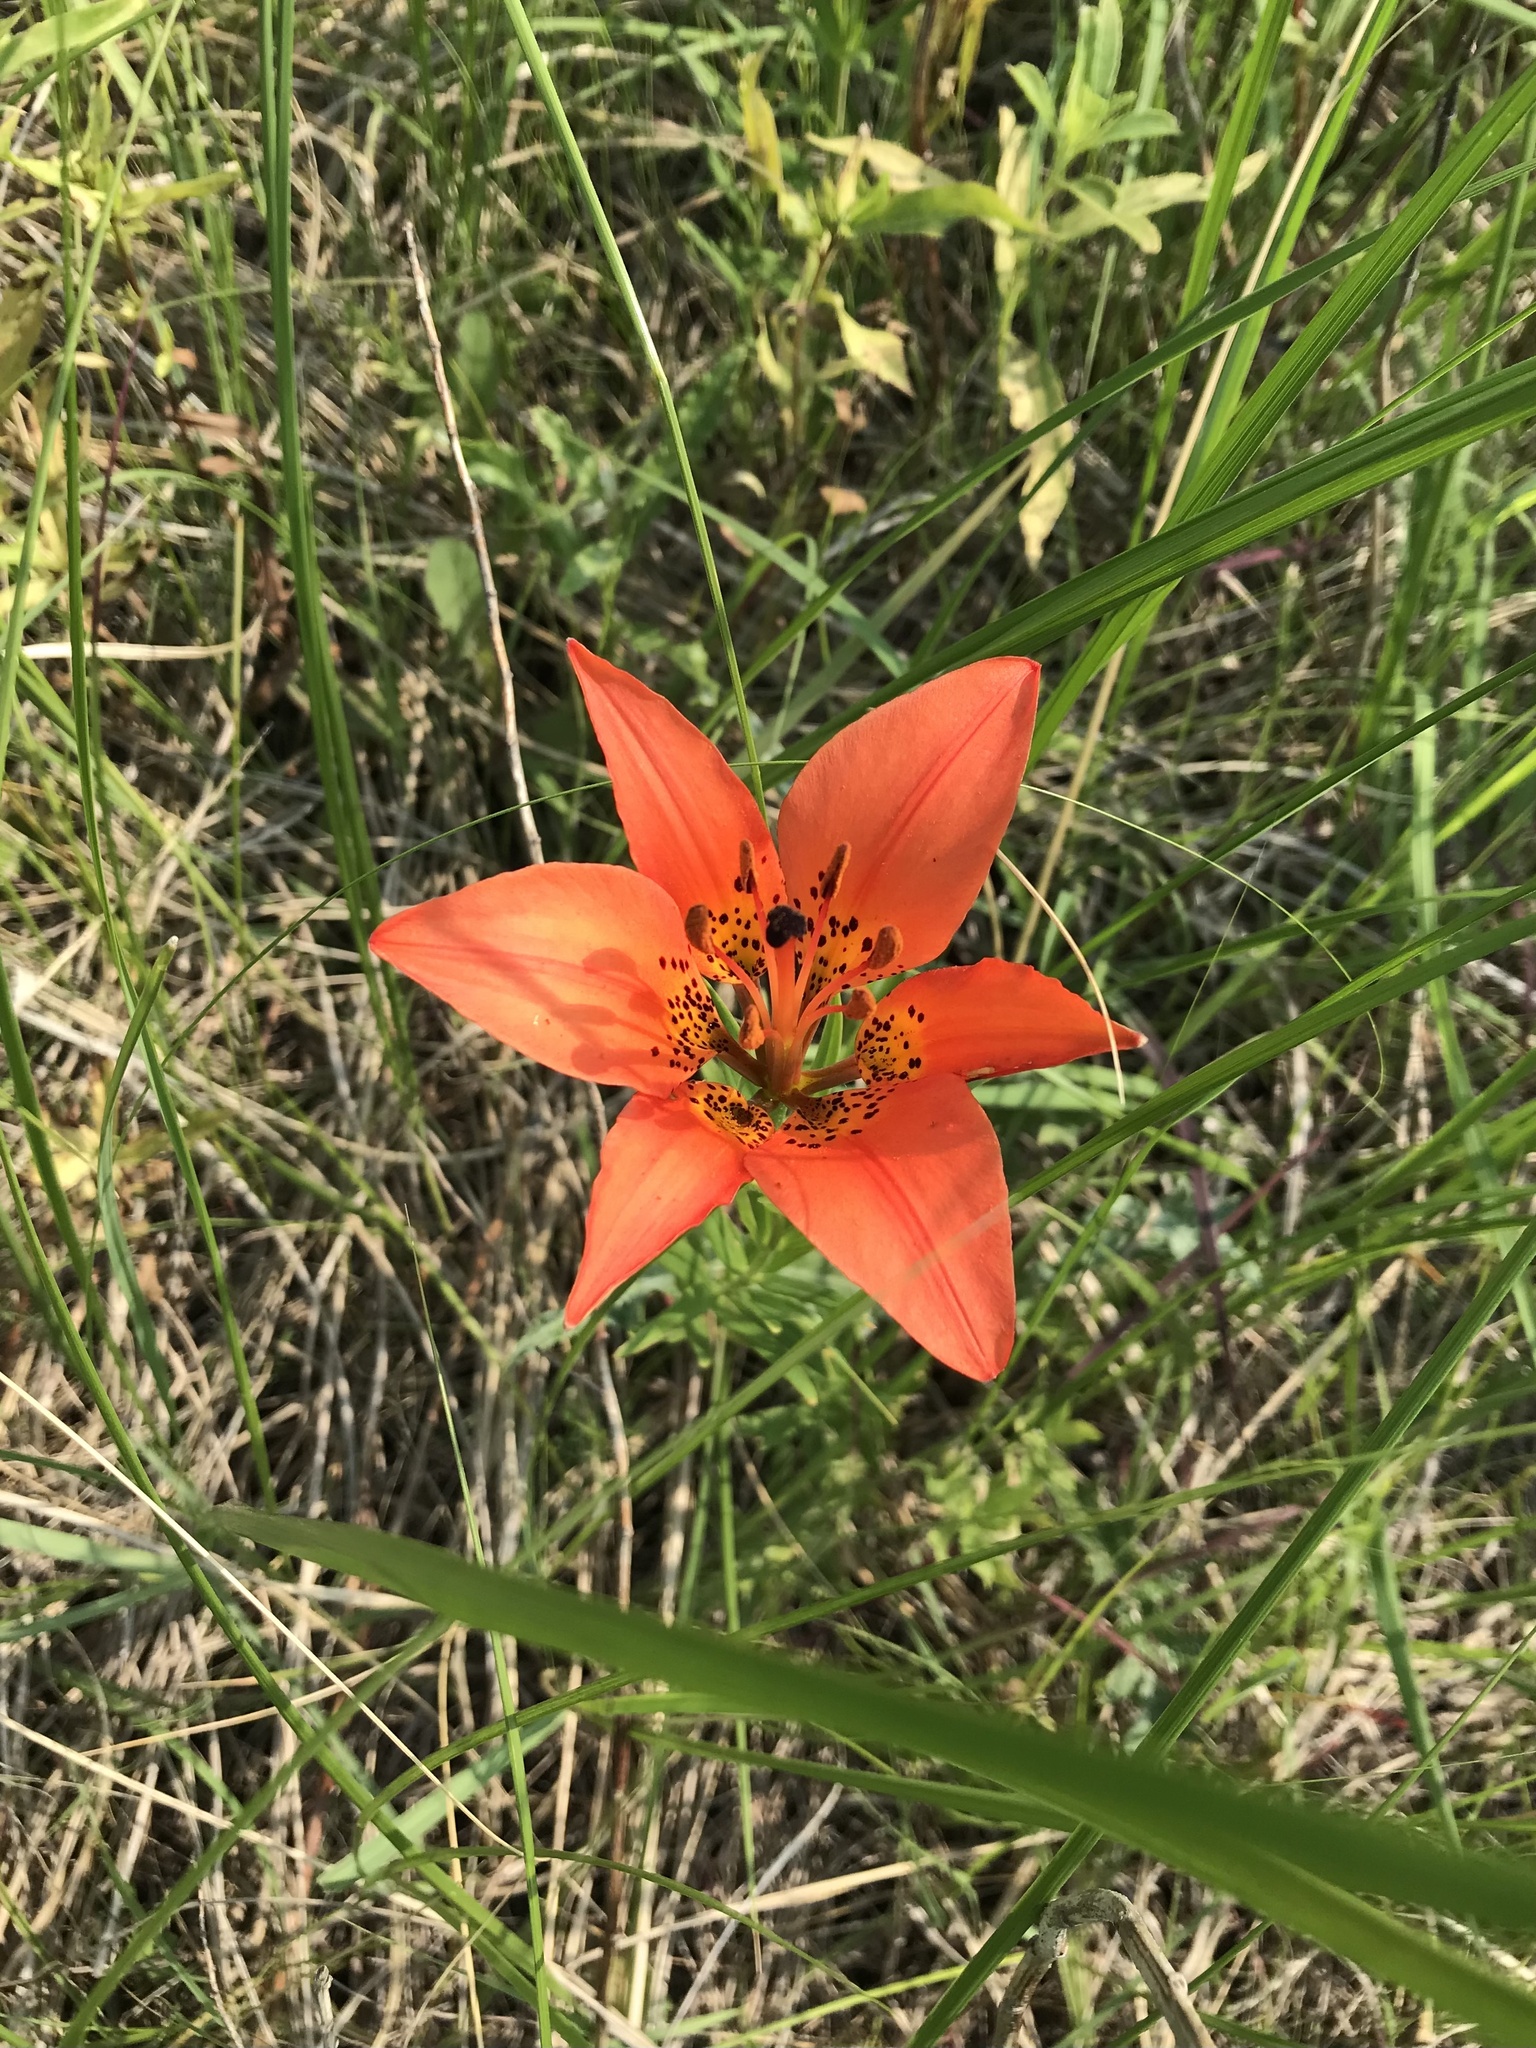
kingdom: Plantae
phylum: Tracheophyta
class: Liliopsida
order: Liliales
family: Liliaceae
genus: Lilium
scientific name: Lilium philadelphicum
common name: Red lily
